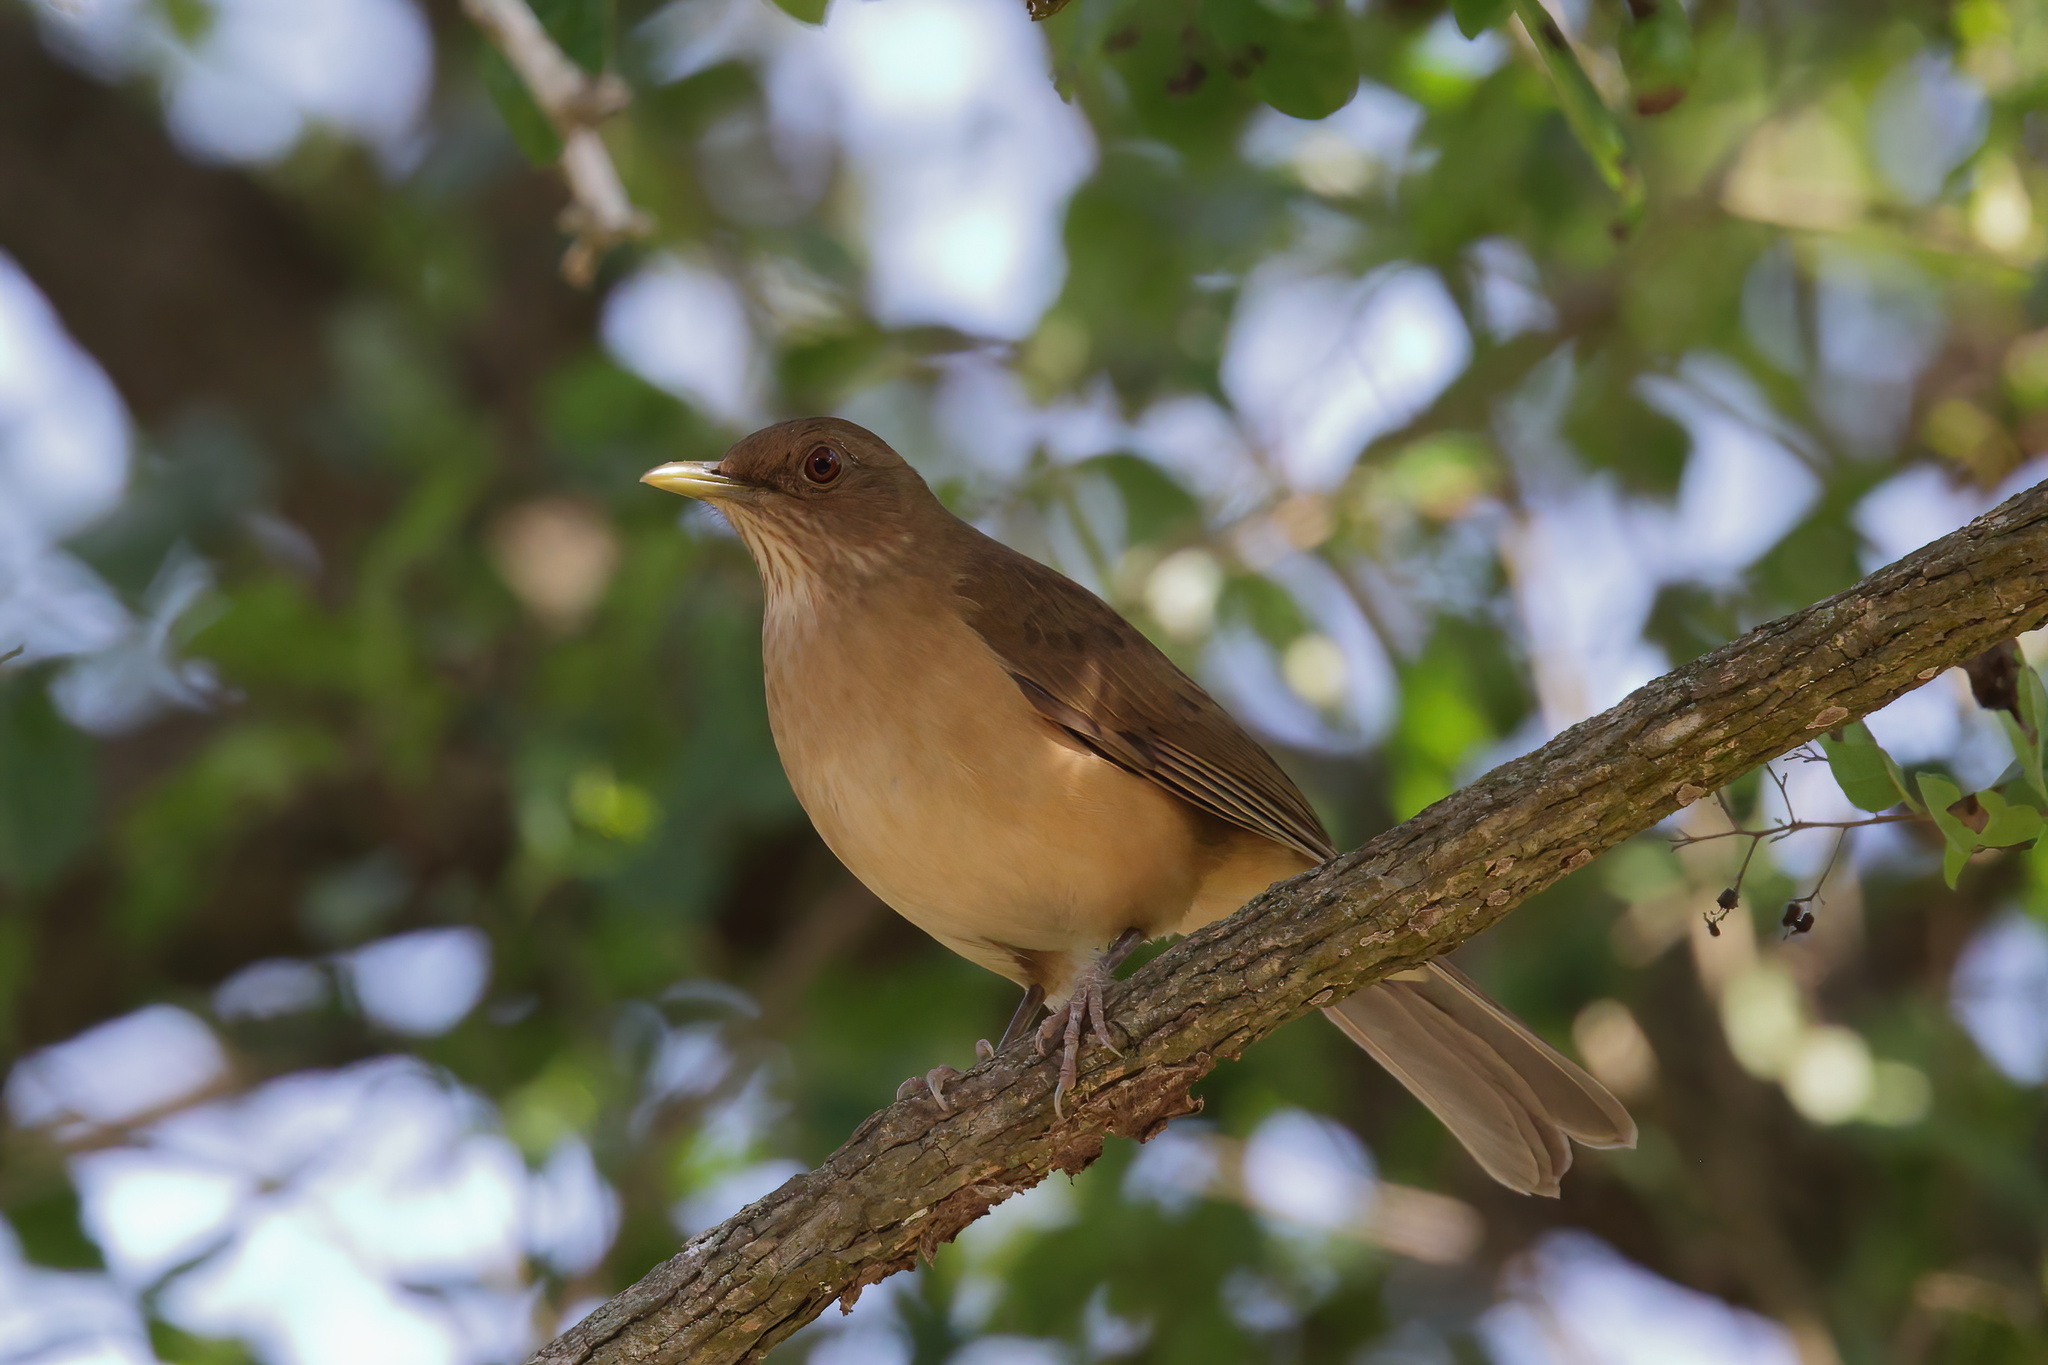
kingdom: Animalia
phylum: Chordata
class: Aves
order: Passeriformes
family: Turdidae
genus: Turdus
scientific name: Turdus grayi
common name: Clay-colored thrush
